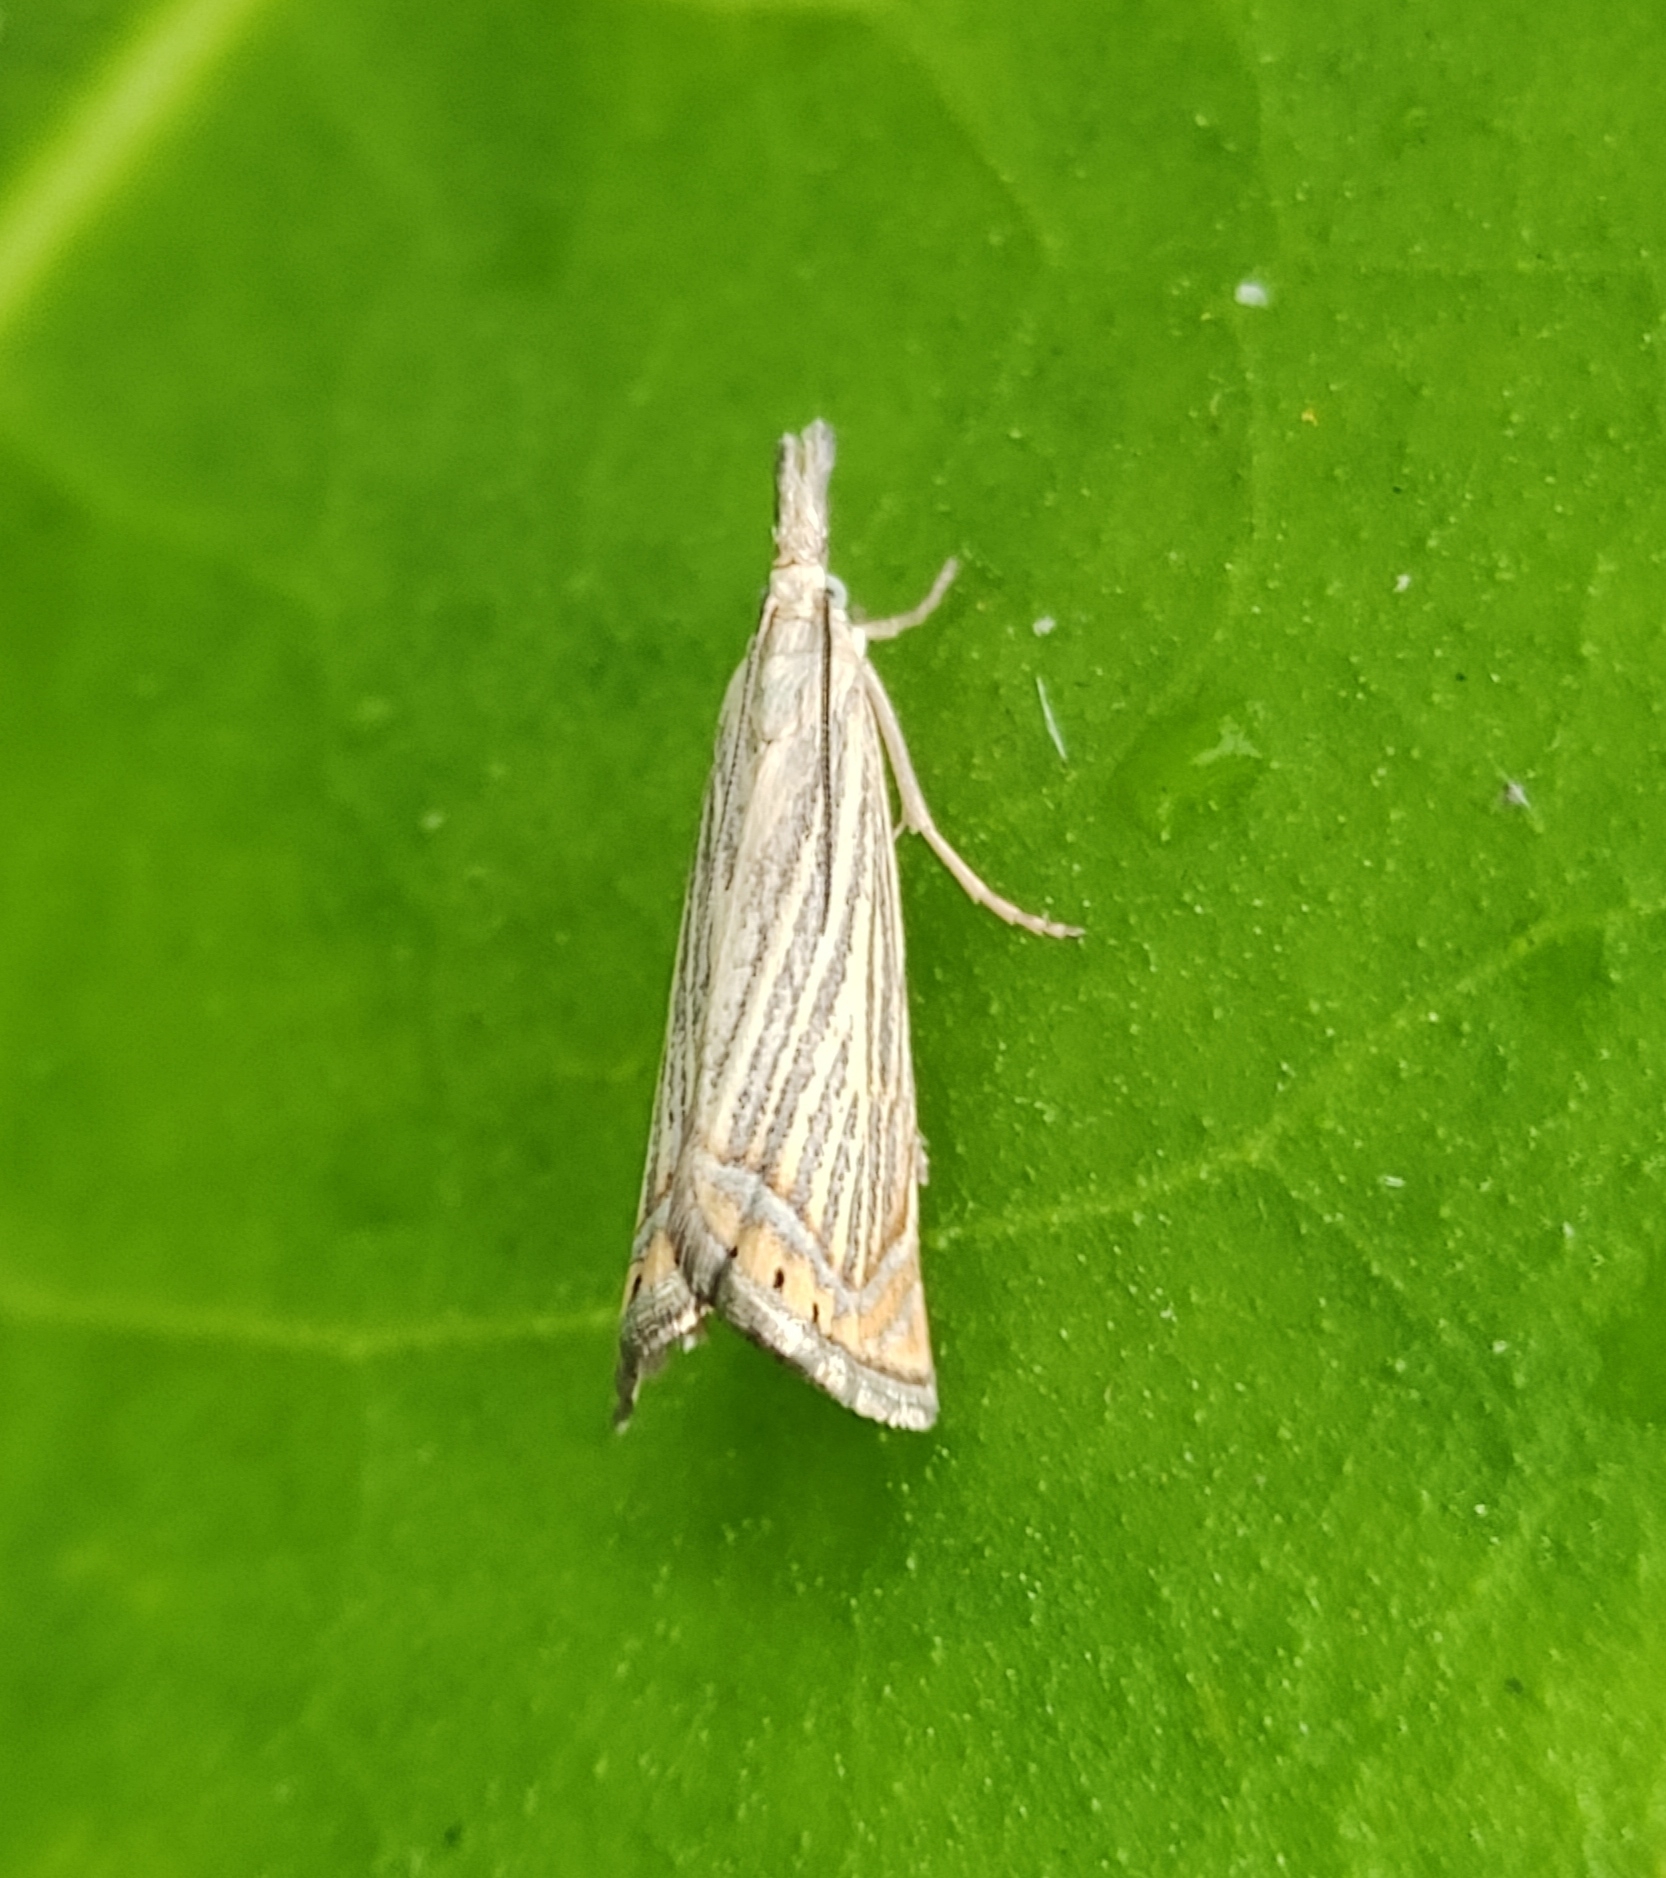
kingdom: Animalia
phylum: Arthropoda
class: Insecta
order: Lepidoptera
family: Crambidae
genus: Chrysoteuchia
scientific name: Chrysoteuchia culmella
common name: Garden grass-veneer
